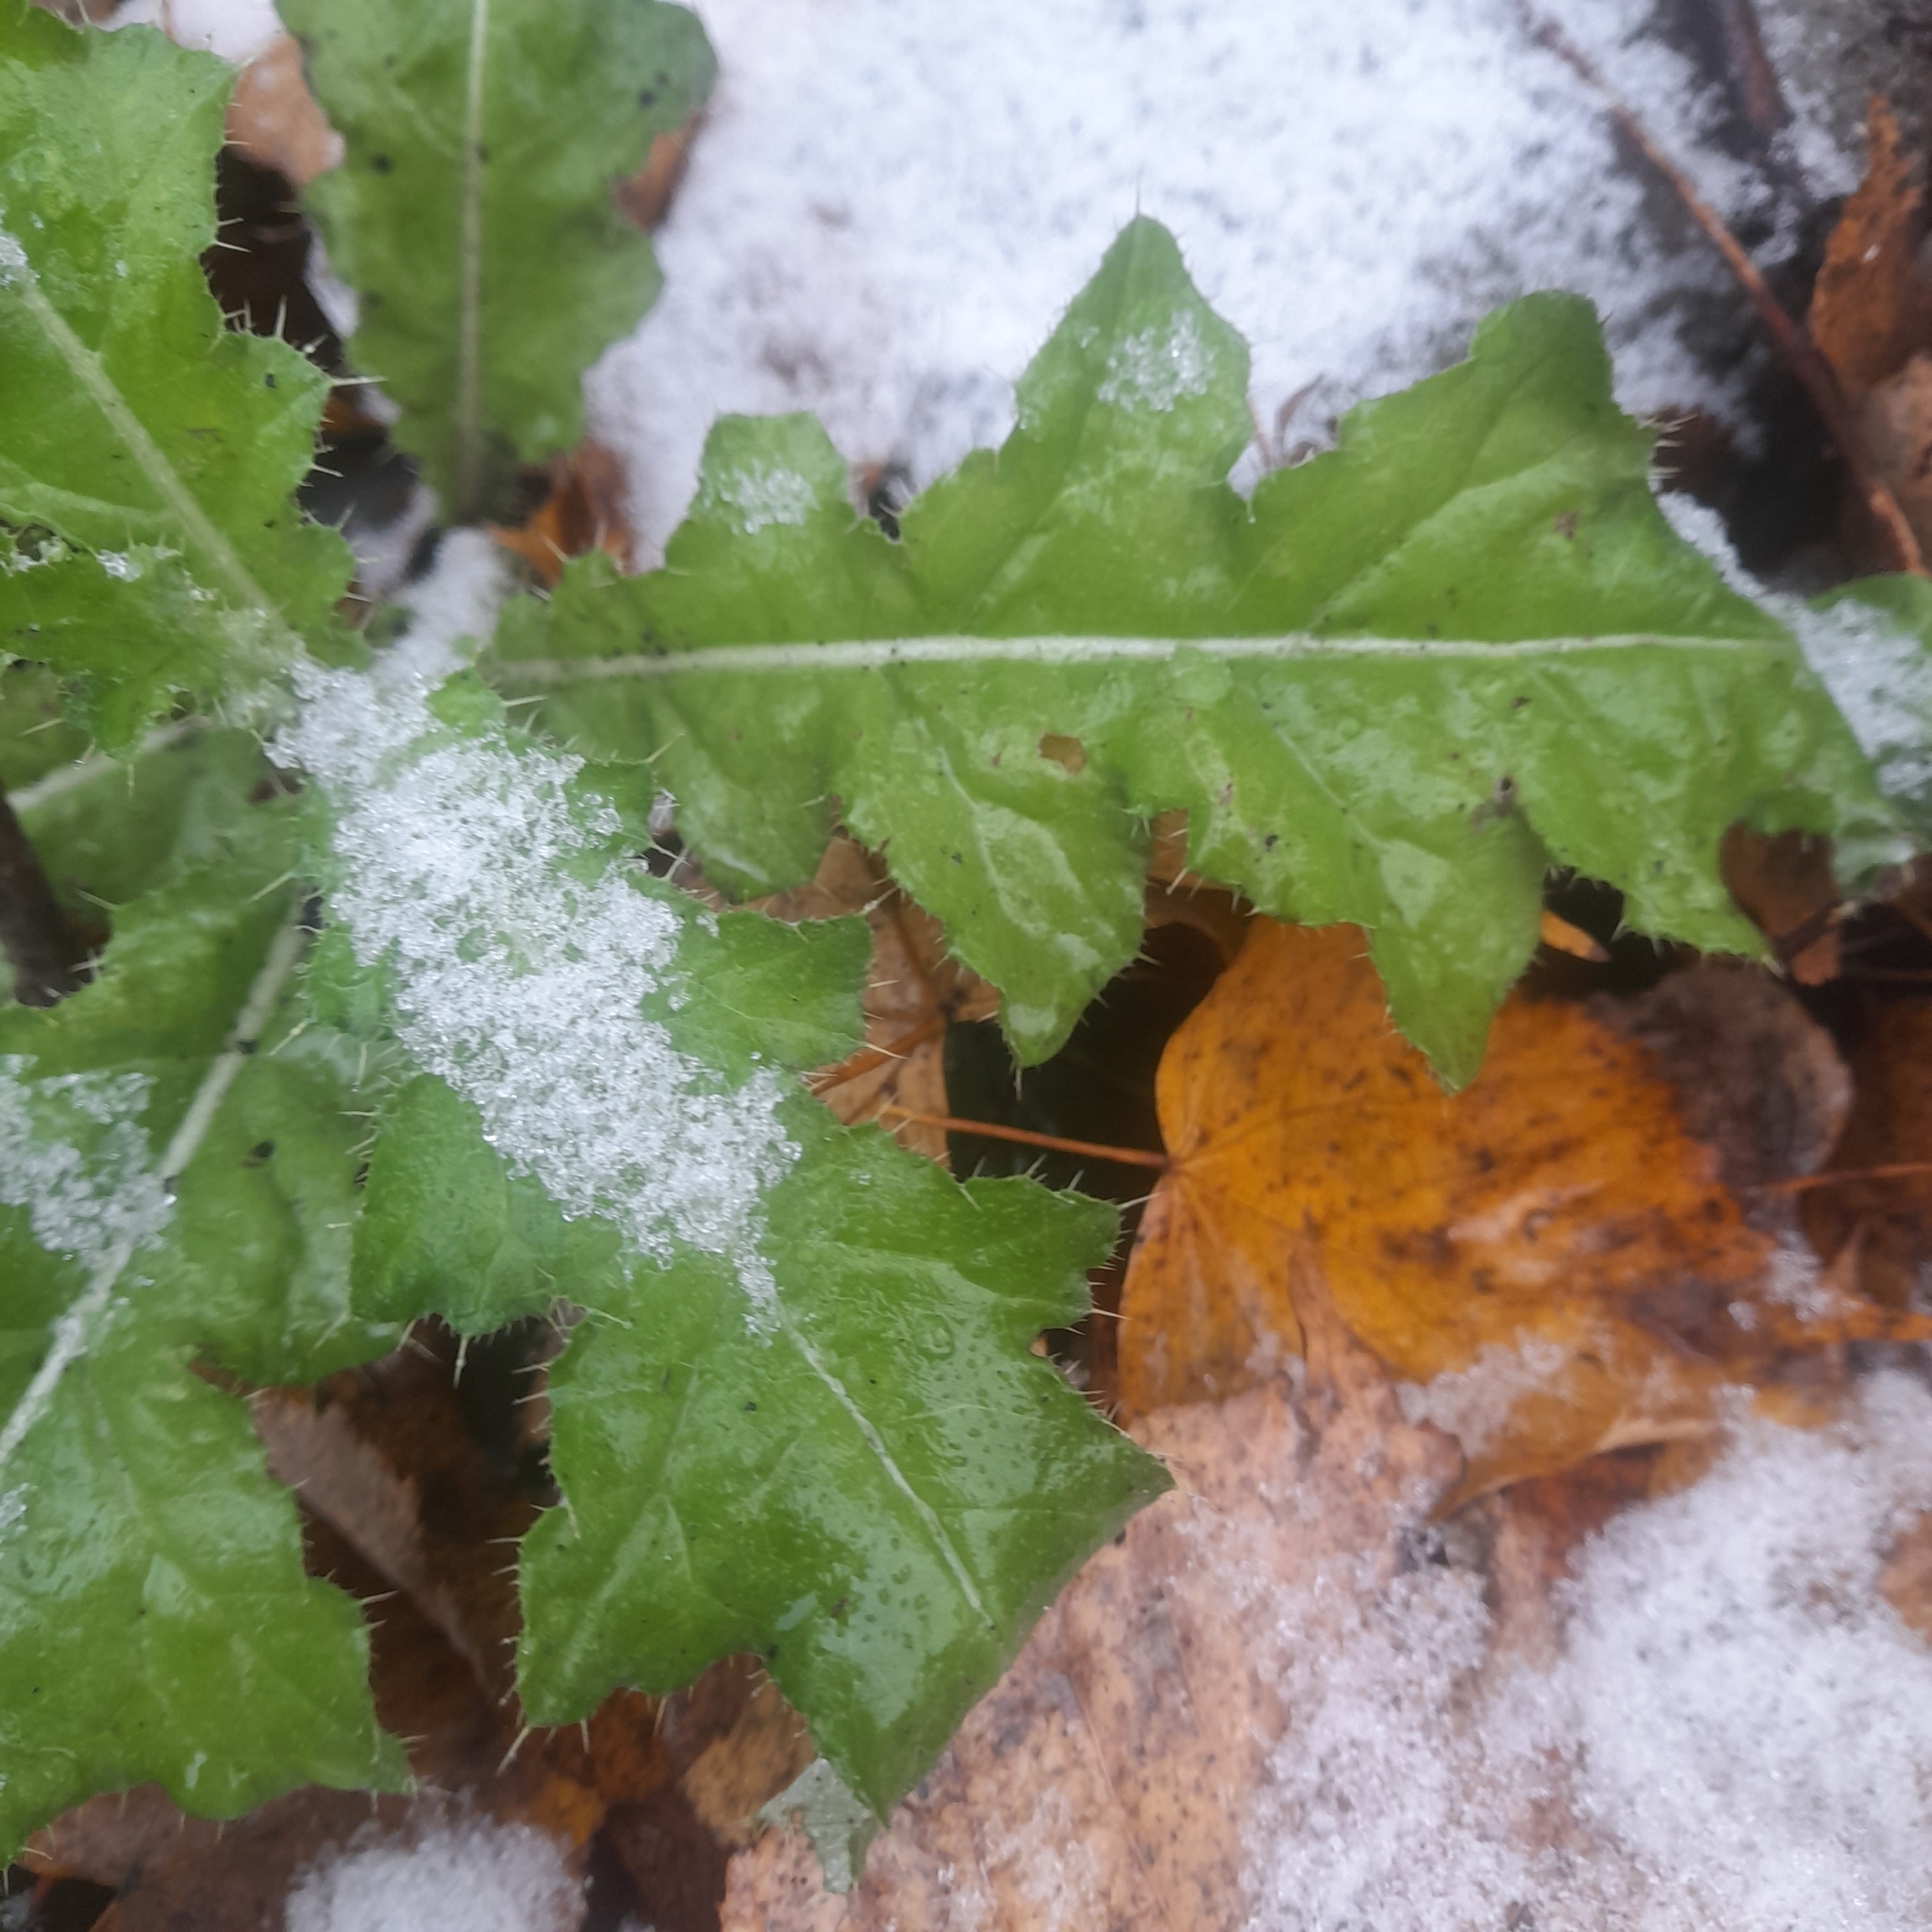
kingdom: Plantae
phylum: Tracheophyta
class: Magnoliopsida
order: Asterales
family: Asteraceae
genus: Cirsium
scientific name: Cirsium arvense
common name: Creeping thistle
